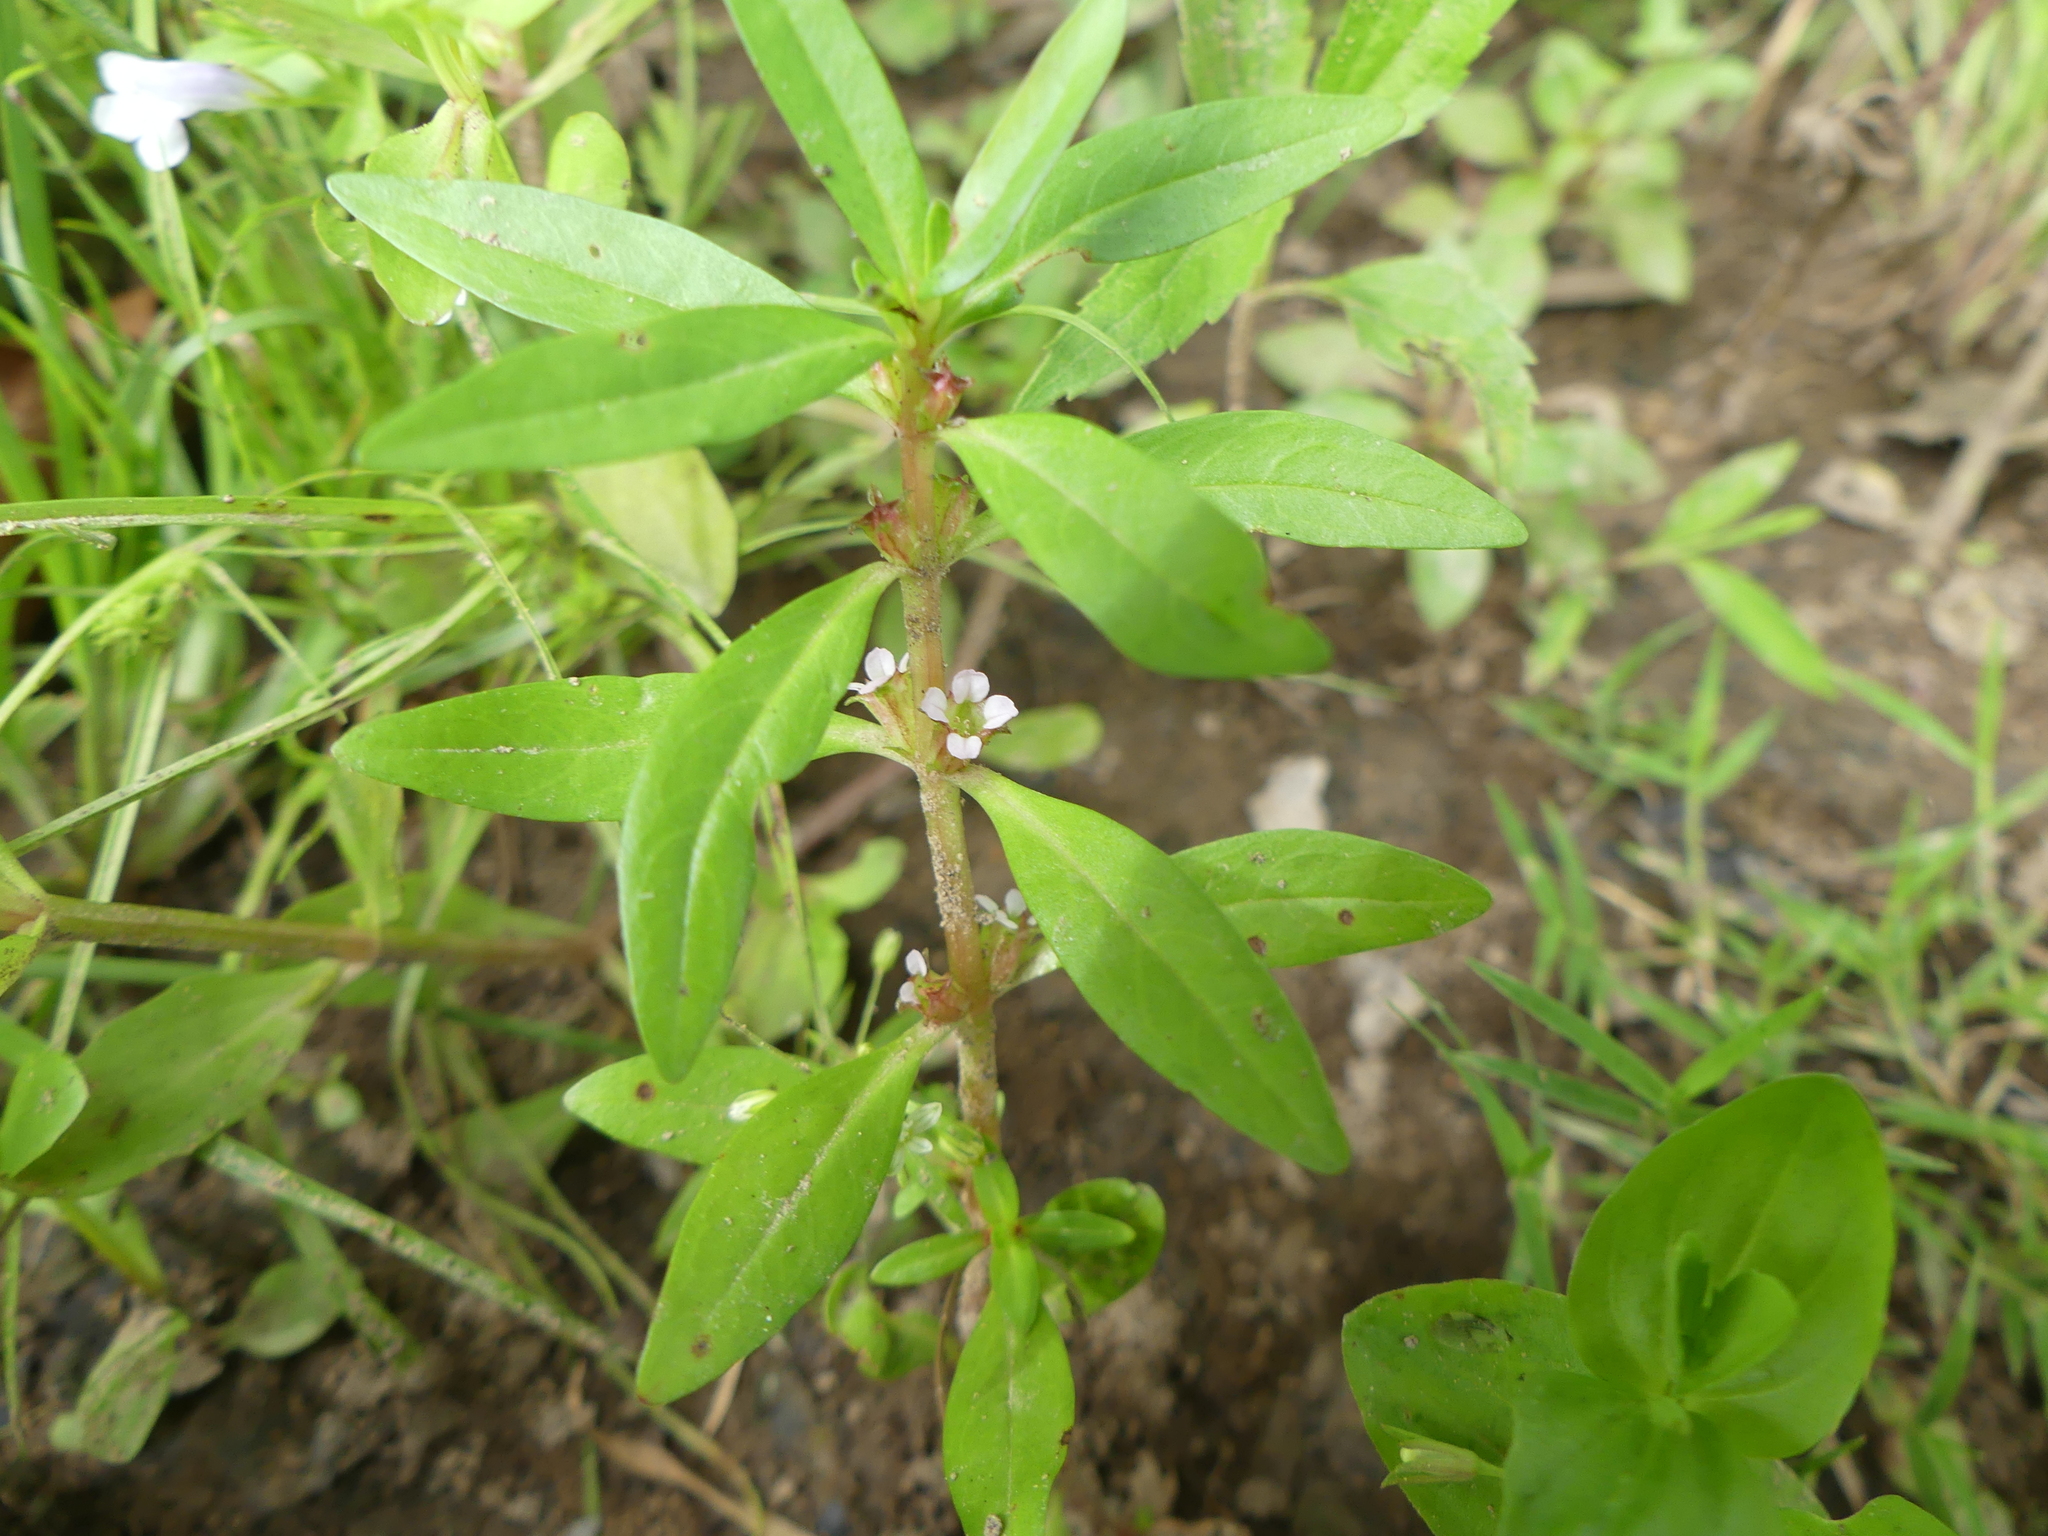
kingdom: Plantae
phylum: Tracheophyta
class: Magnoliopsida
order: Myrtales
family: Lythraceae
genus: Rotala
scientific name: Rotala ramosior
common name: Lowland rotala
